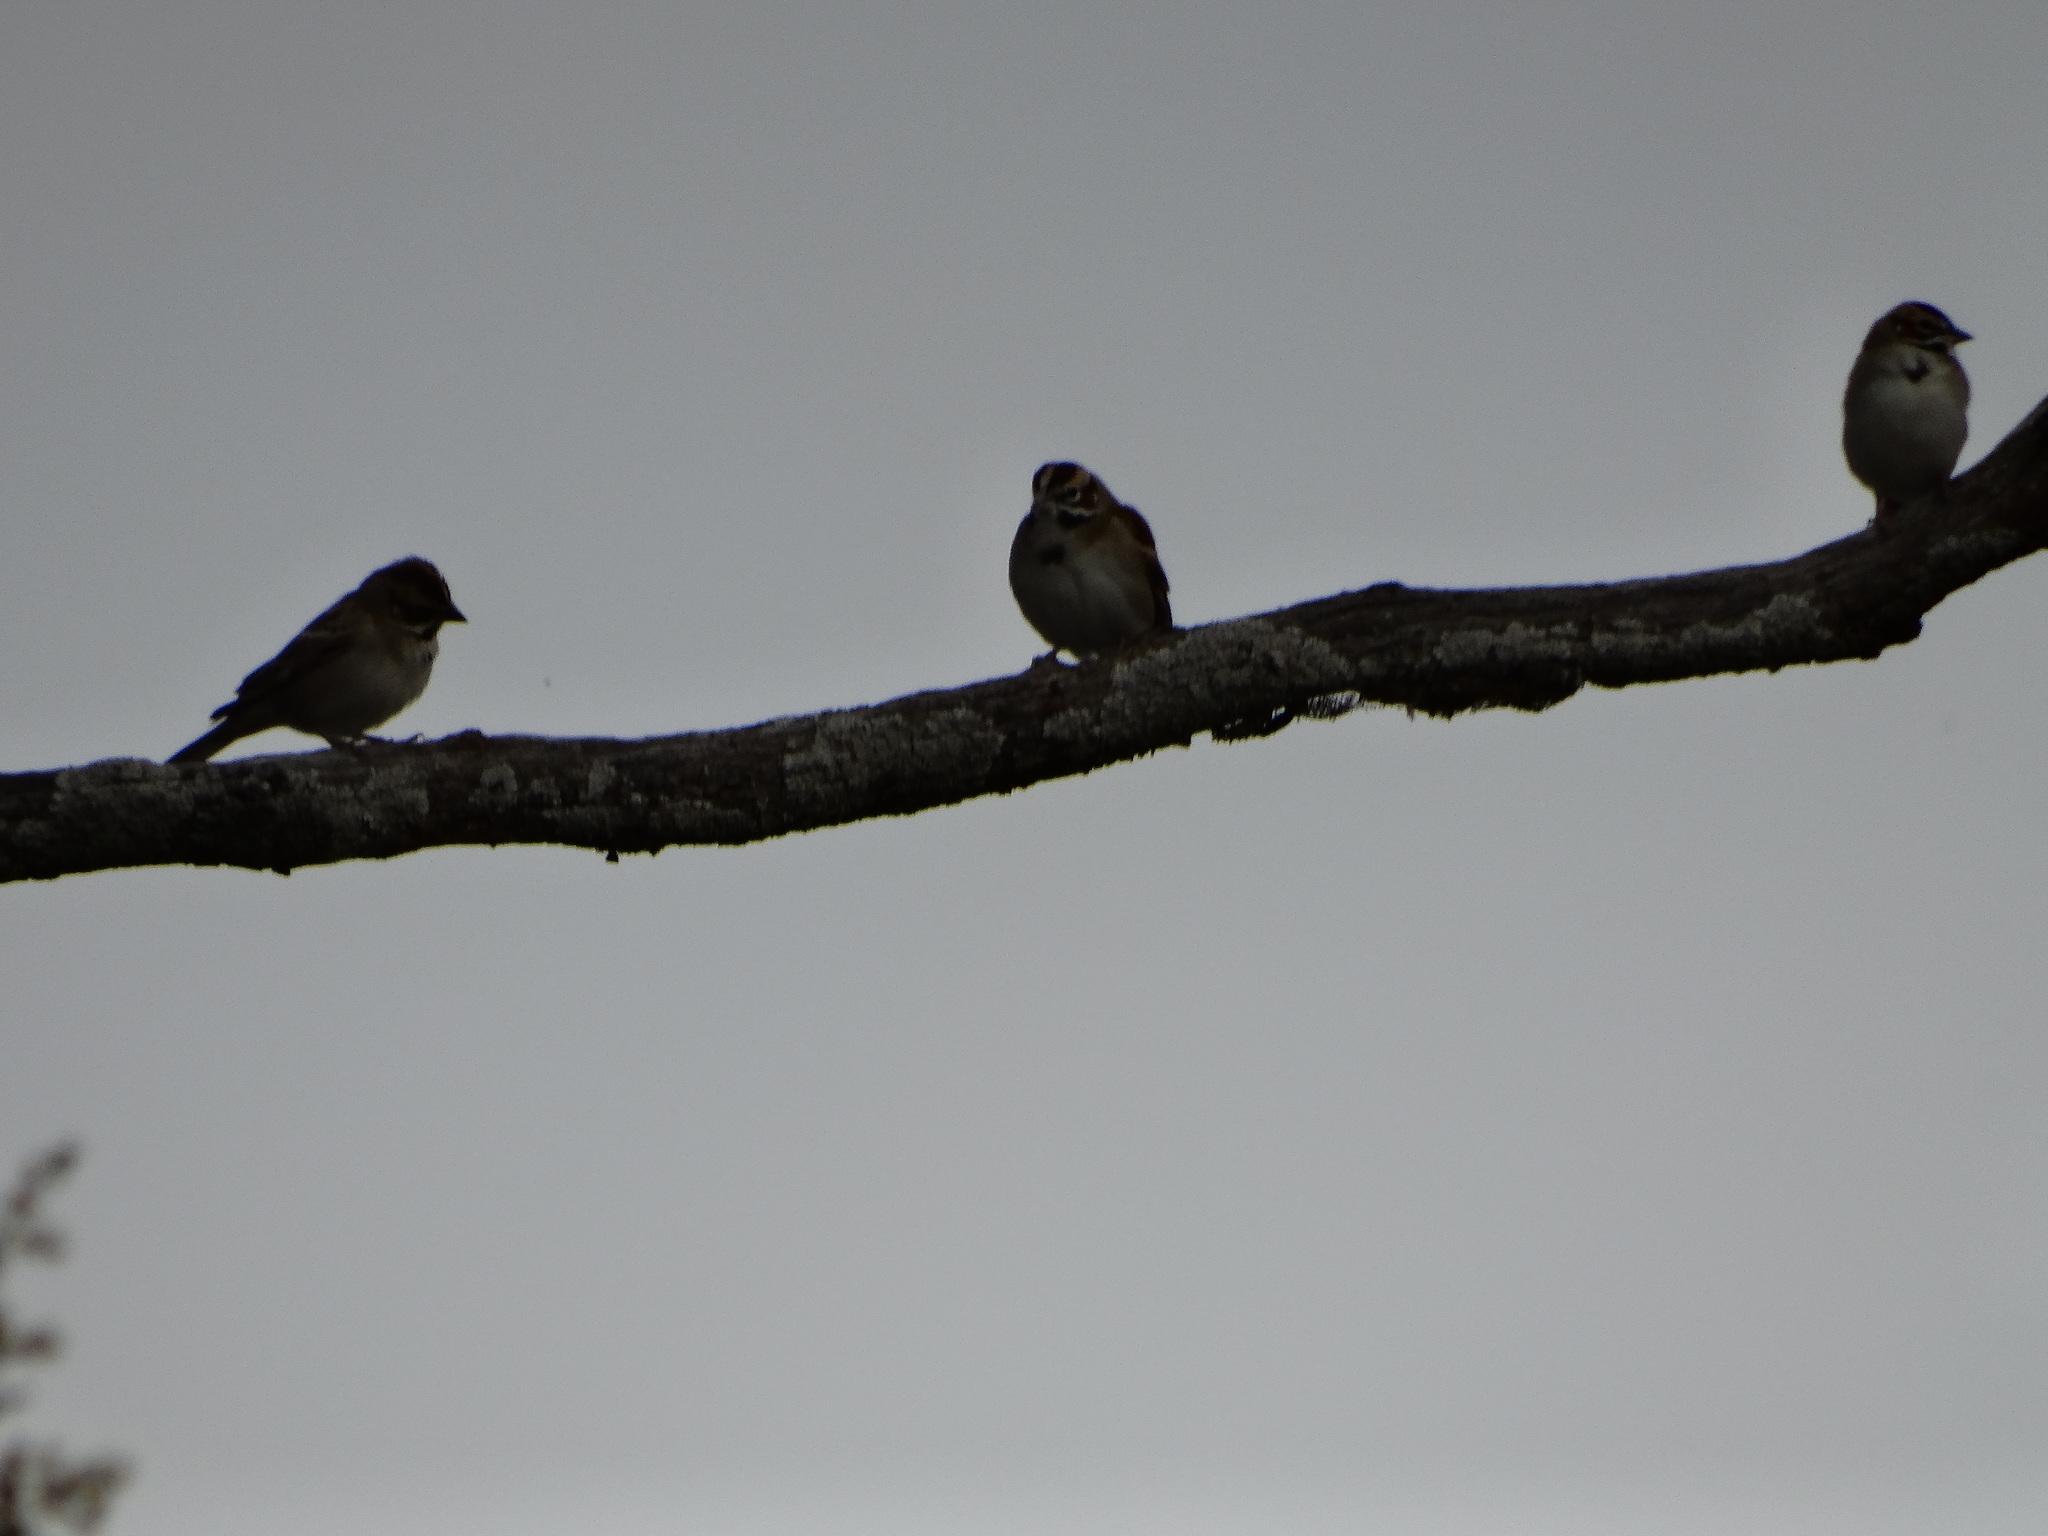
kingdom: Animalia
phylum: Chordata
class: Aves
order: Passeriformes
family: Passerellidae
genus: Chondestes
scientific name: Chondestes grammacus
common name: Lark sparrow
